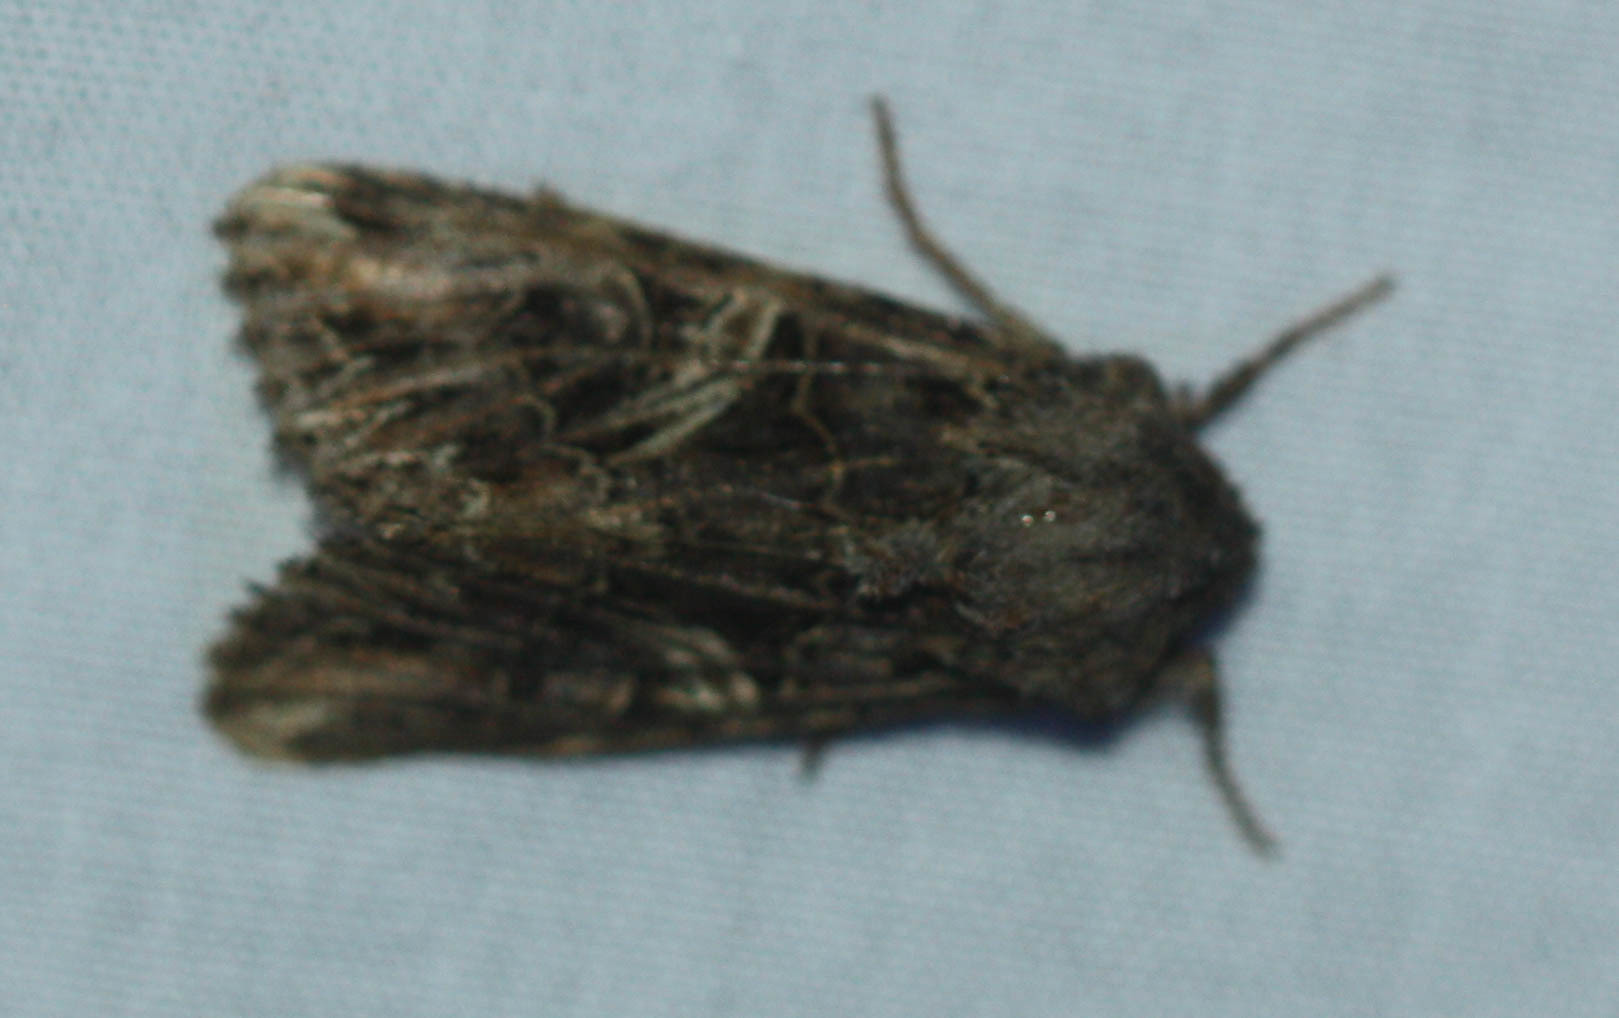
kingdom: Animalia
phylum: Arthropoda
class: Insecta
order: Lepidoptera
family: Noctuidae
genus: Anarta
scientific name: Anarta farnhami
